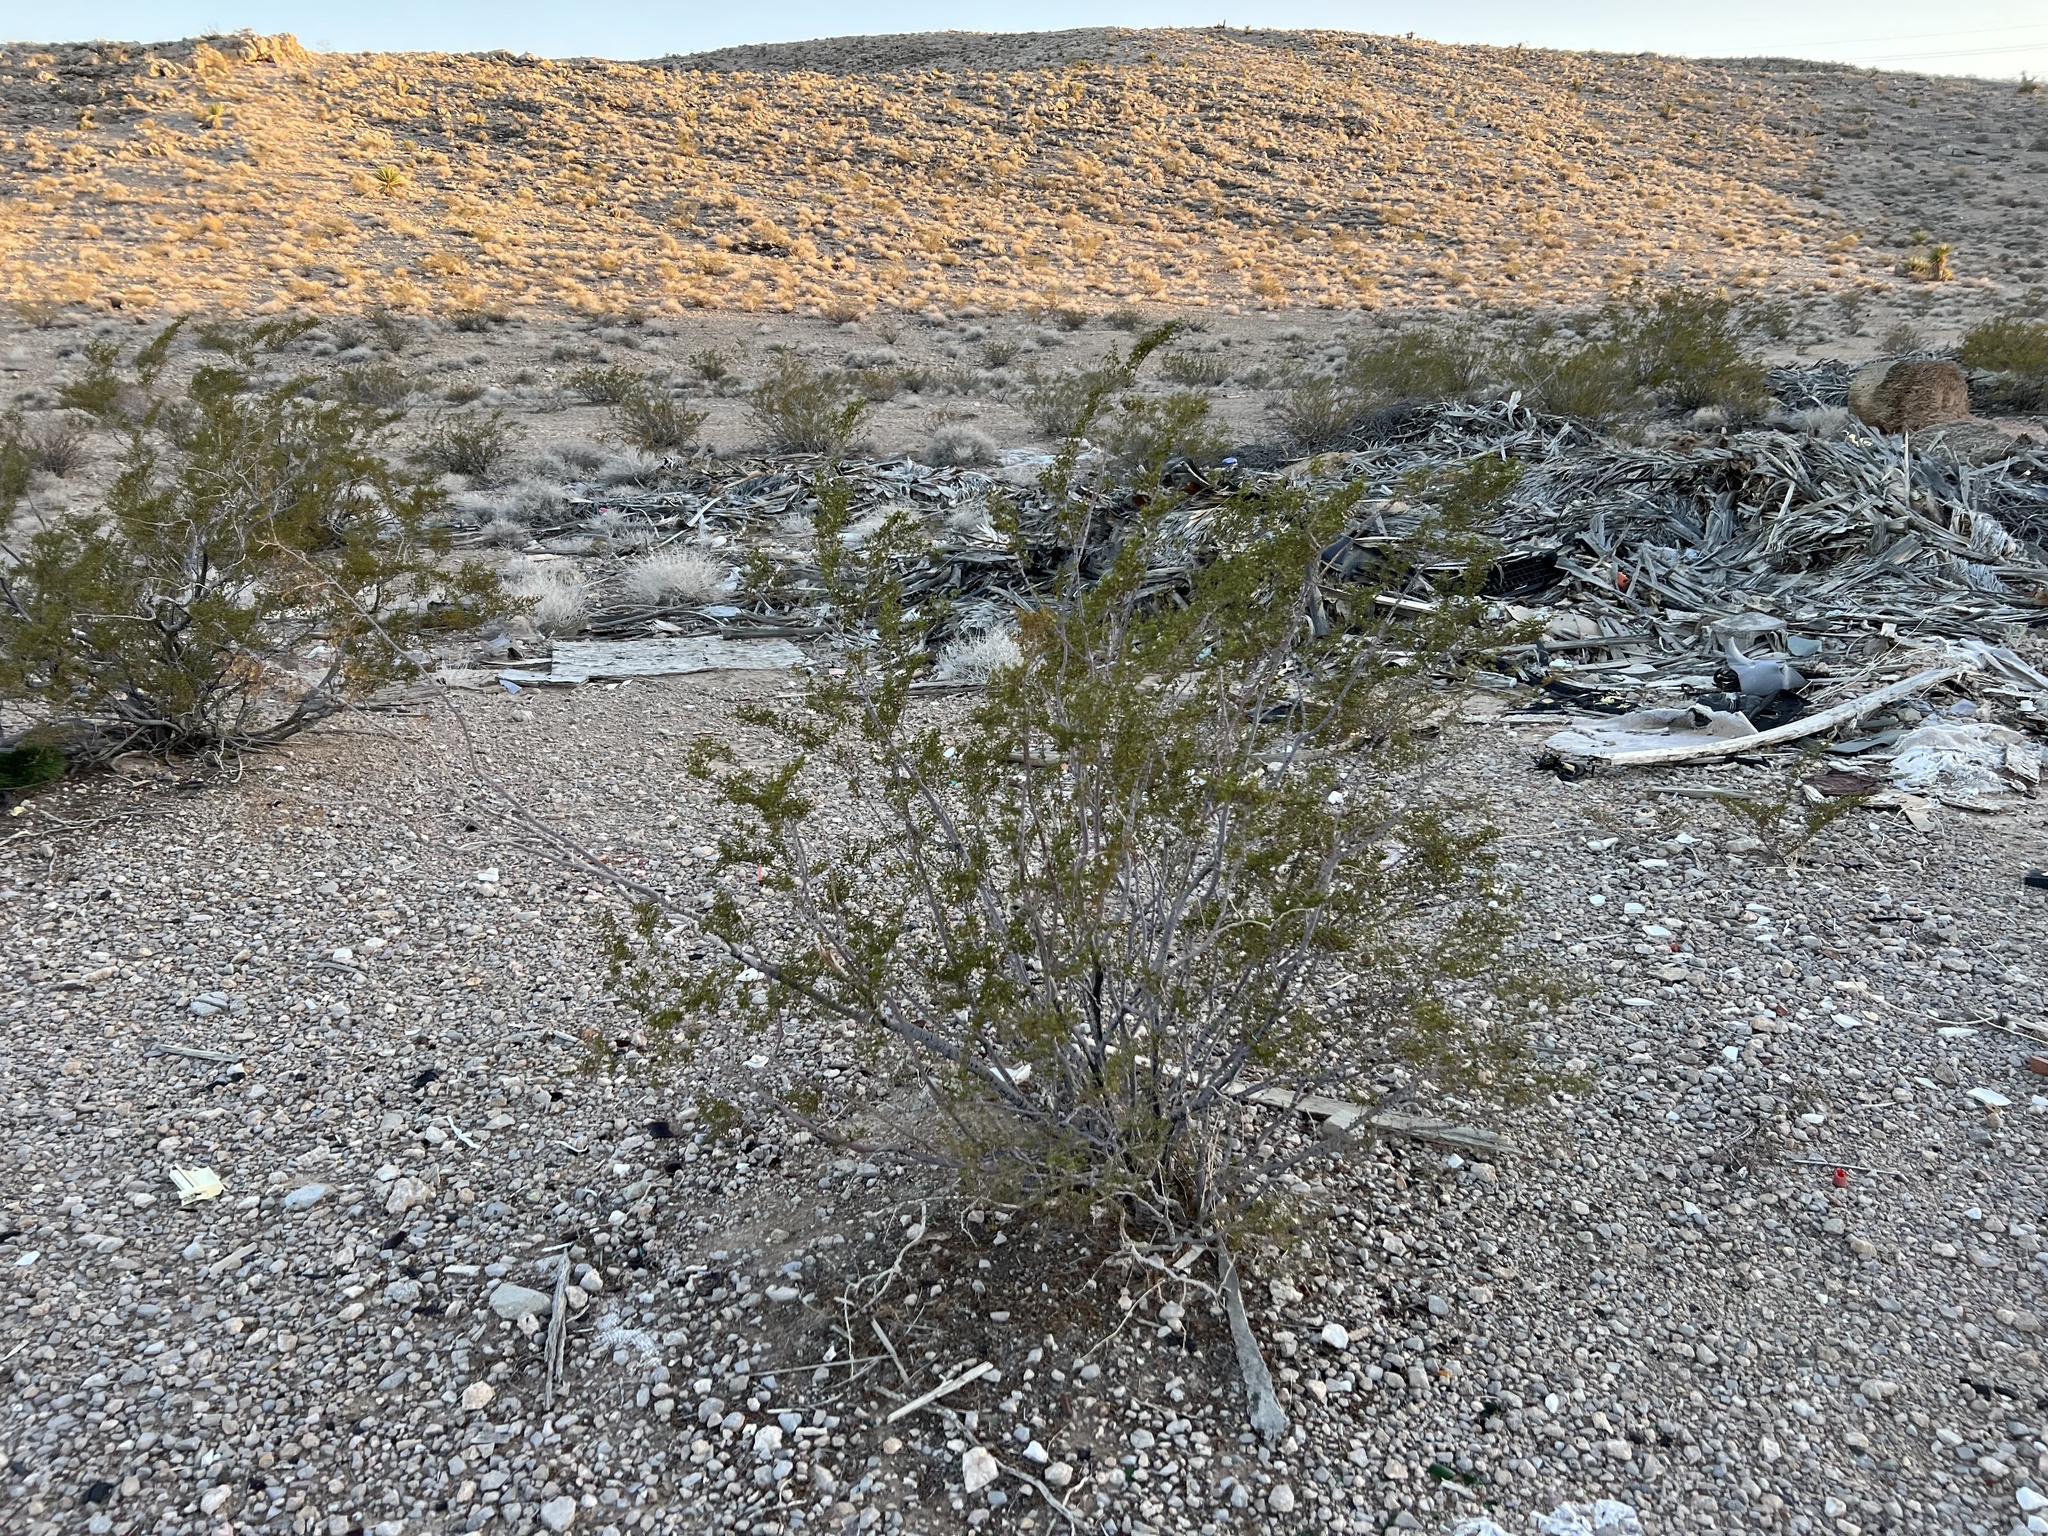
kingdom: Plantae
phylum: Tracheophyta
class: Magnoliopsida
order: Zygophyllales
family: Zygophyllaceae
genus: Larrea
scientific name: Larrea tridentata
